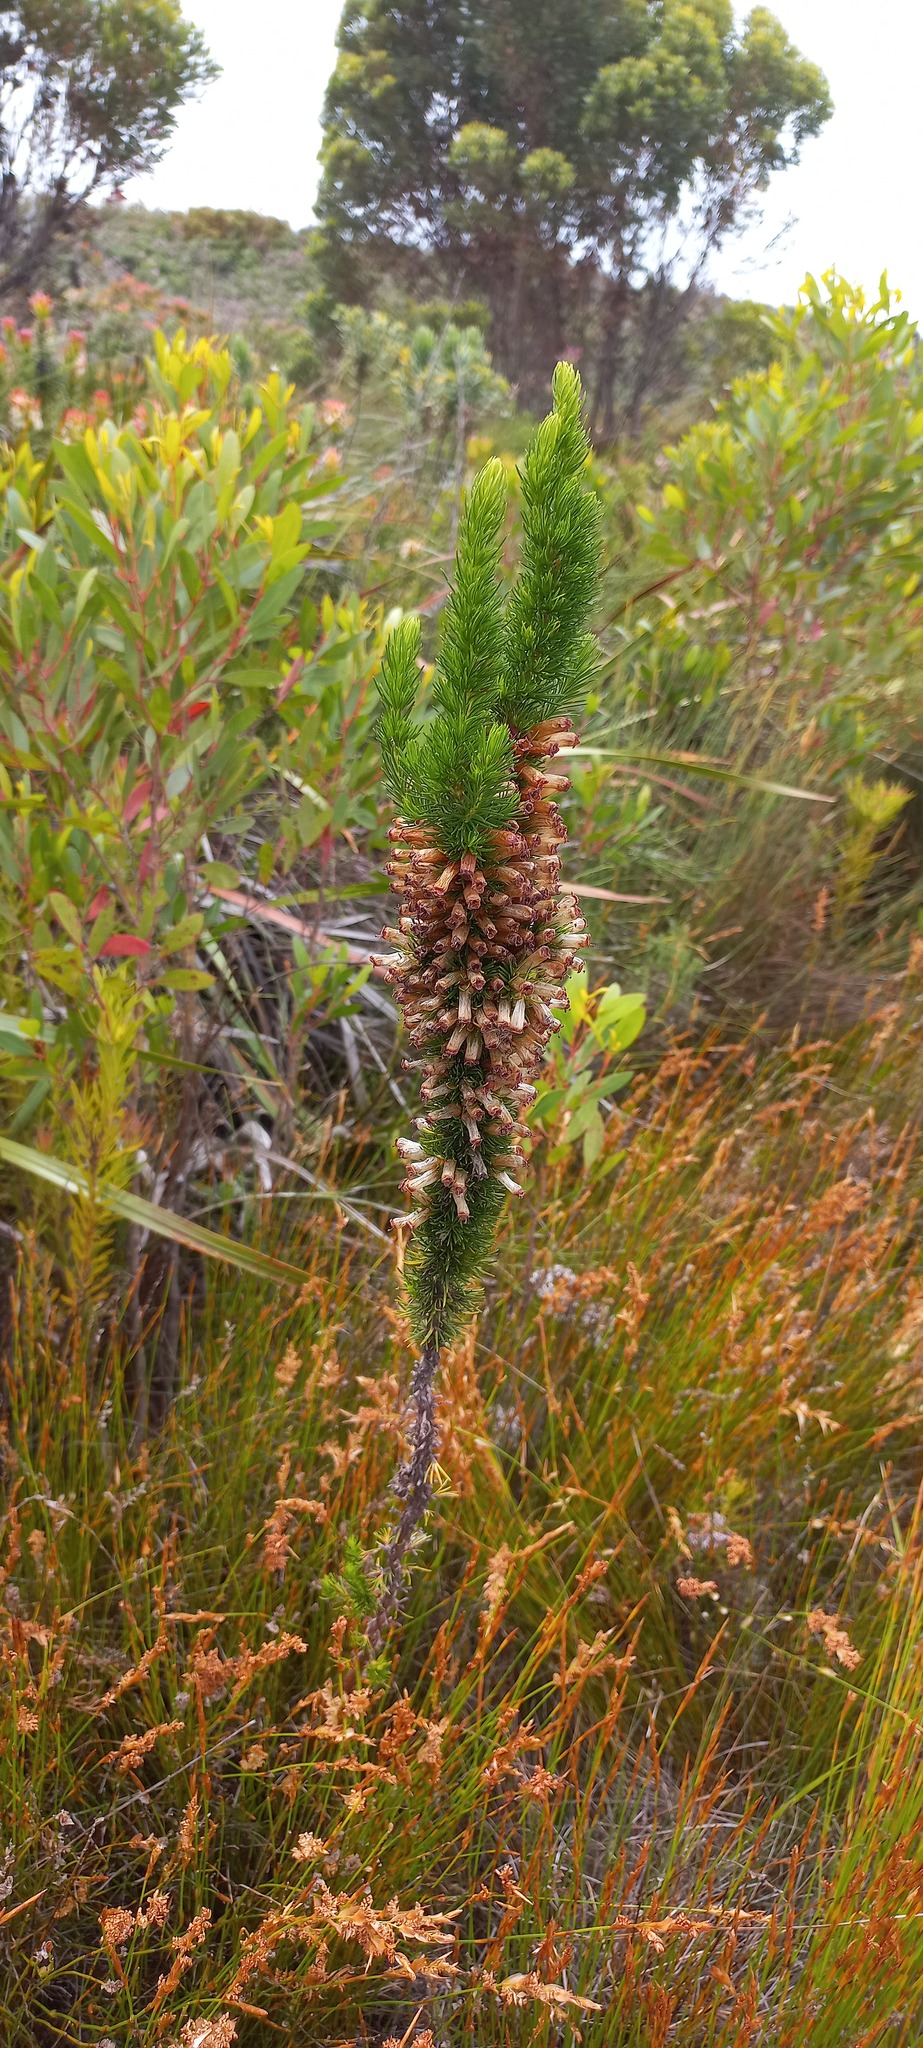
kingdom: Plantae
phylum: Tracheophyta
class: Magnoliopsida
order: Ericales
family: Ericaceae
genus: Erica
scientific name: Erica patersonia
